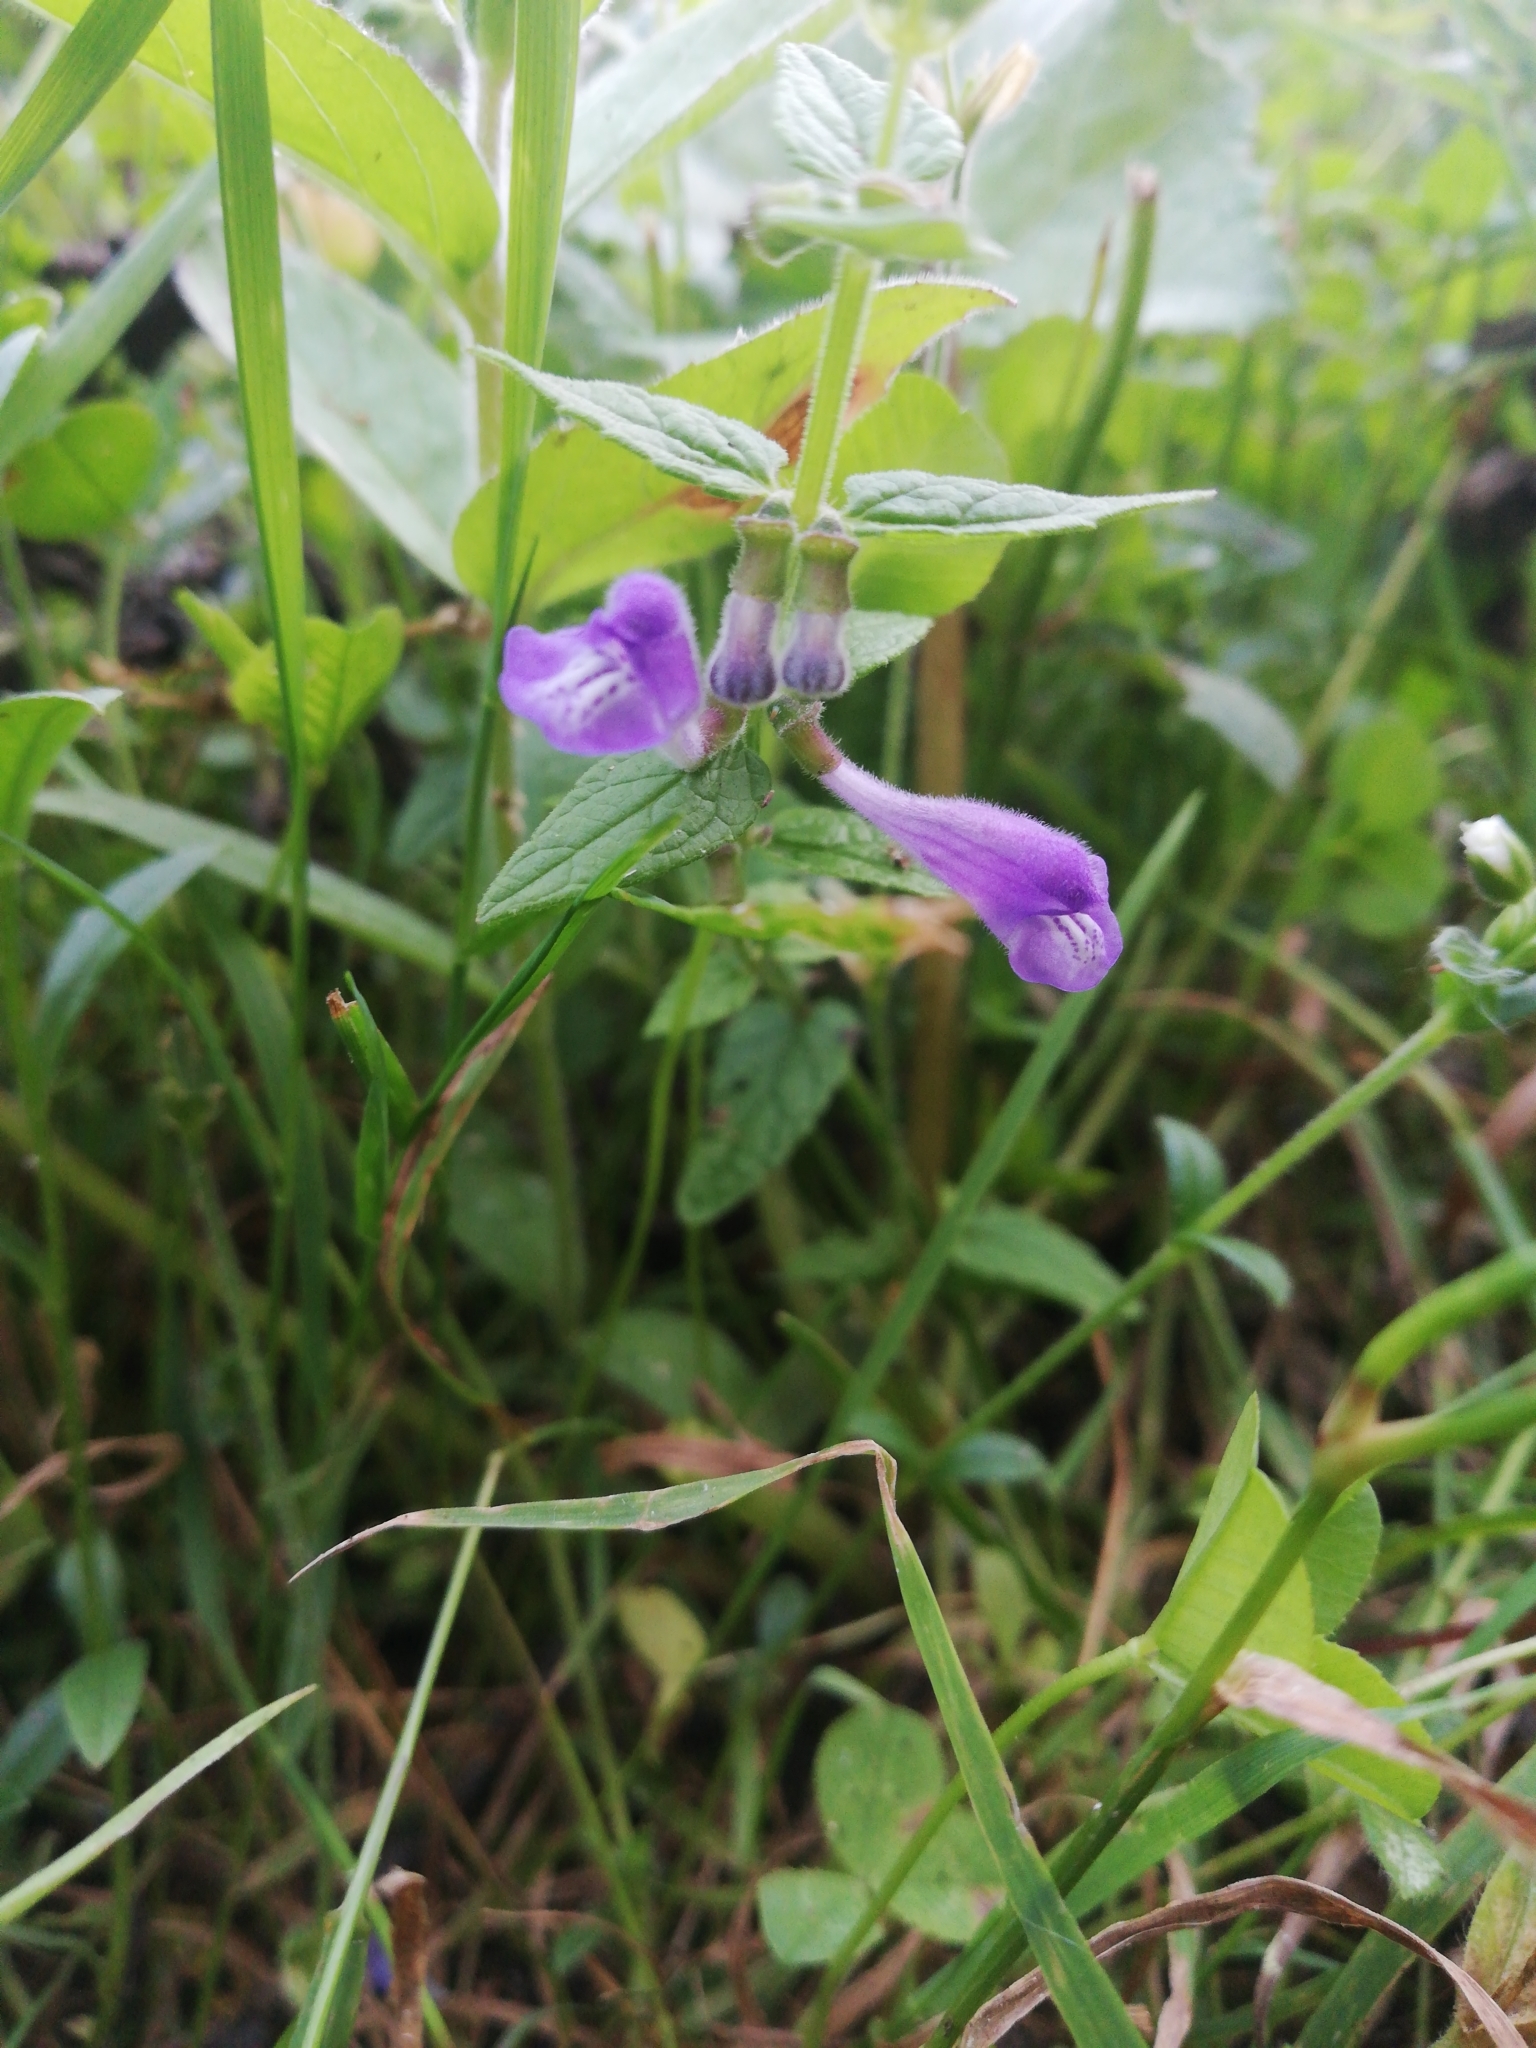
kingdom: Plantae
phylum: Tracheophyta
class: Magnoliopsida
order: Lamiales
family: Lamiaceae
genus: Scutellaria
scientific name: Scutellaria galericulata
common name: Skullcap
